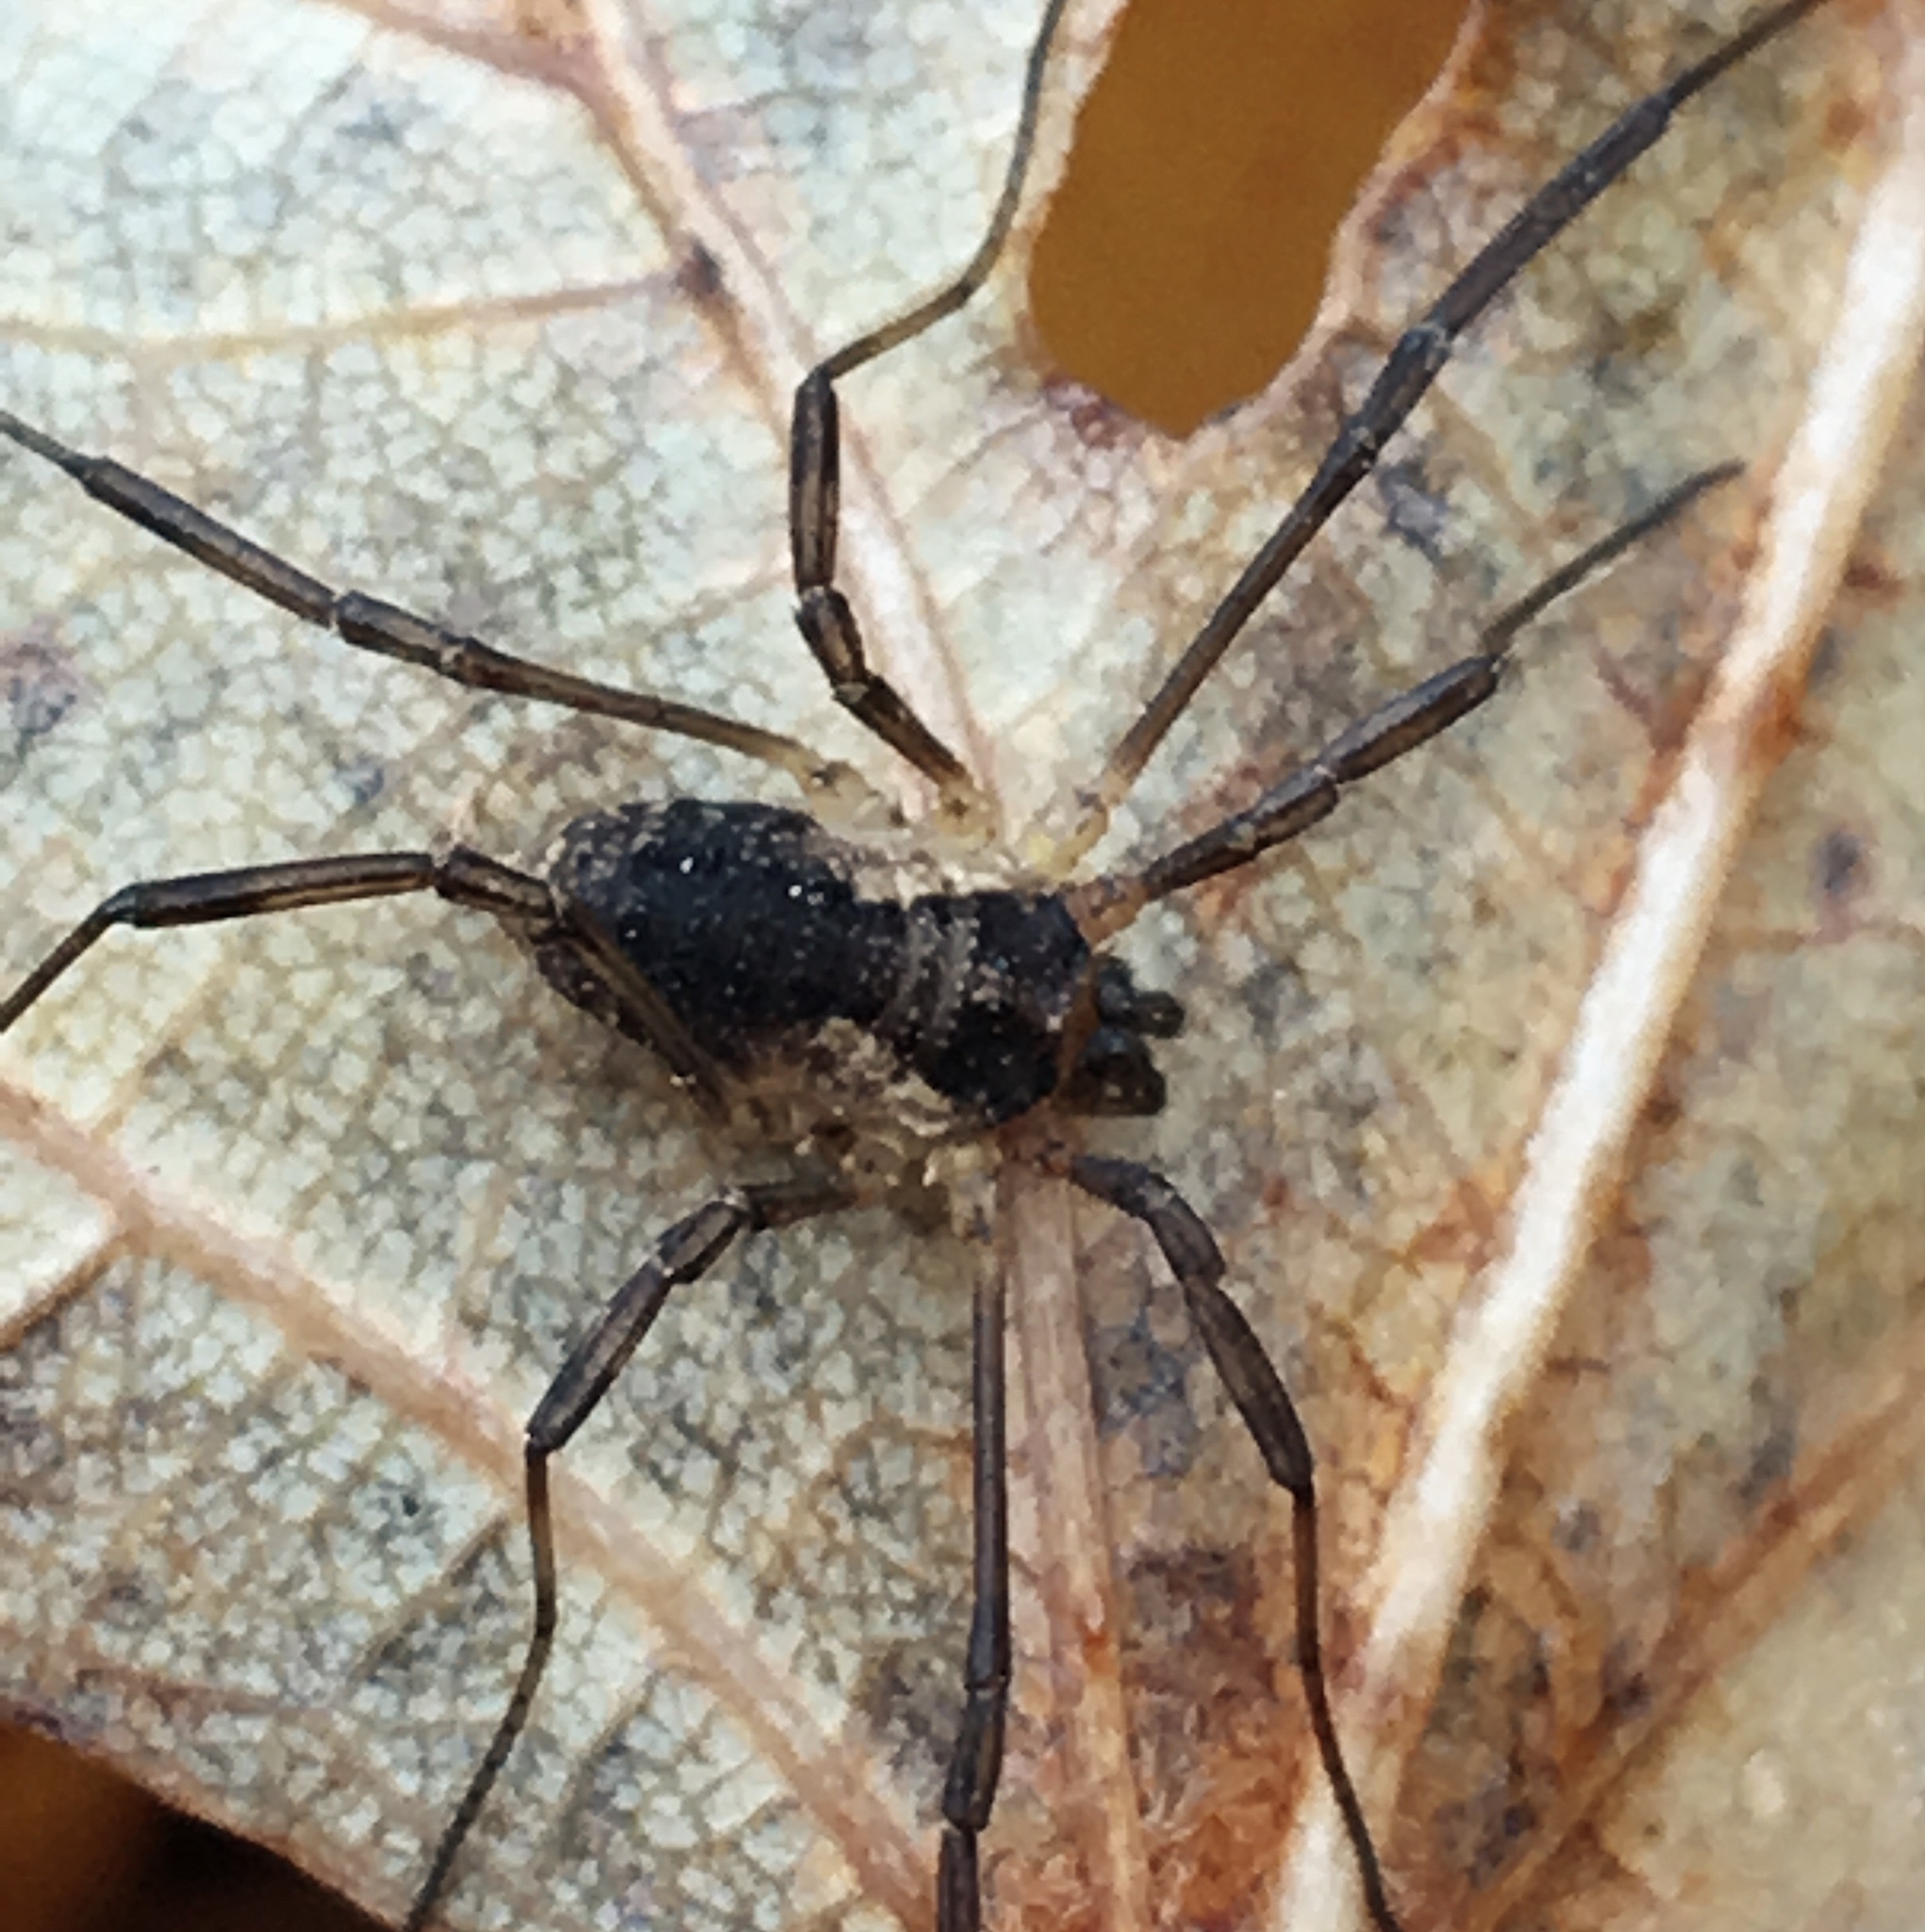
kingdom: Animalia
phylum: Arthropoda
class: Arachnida
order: Opiliones
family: Phalangiidae
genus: Mitopus
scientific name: Mitopus morio
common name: Saddleback harvestman
